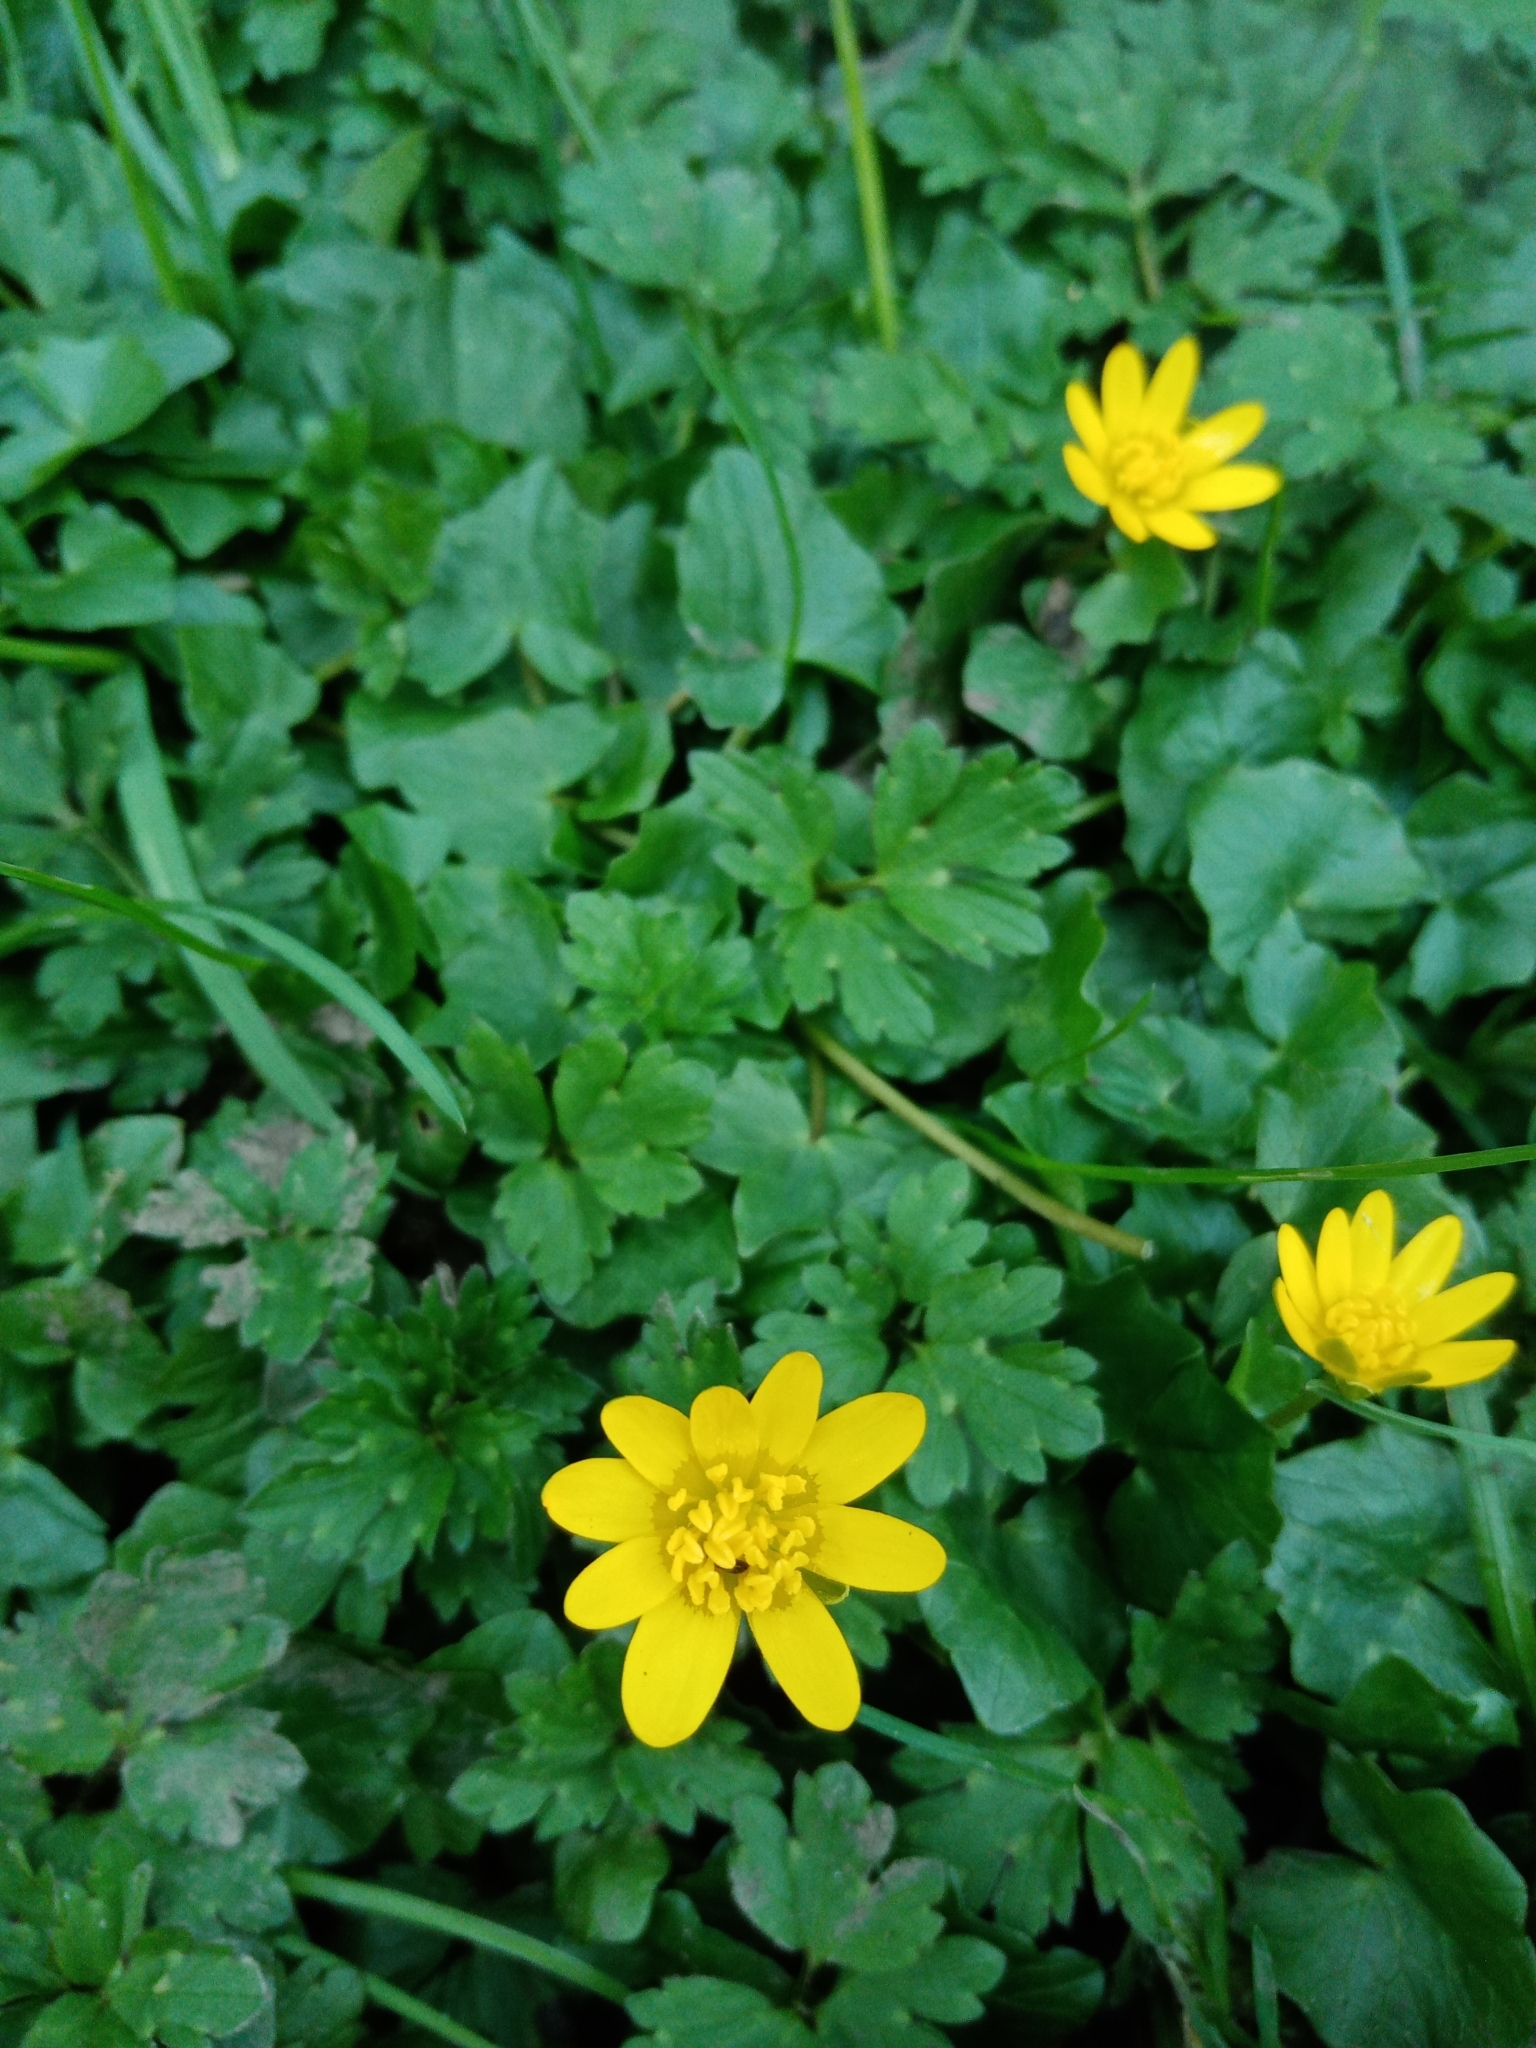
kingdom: Plantae
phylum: Tracheophyta
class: Magnoliopsida
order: Ranunculales
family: Ranunculaceae
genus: Ficaria
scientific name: Ficaria verna
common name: Lesser celandine
